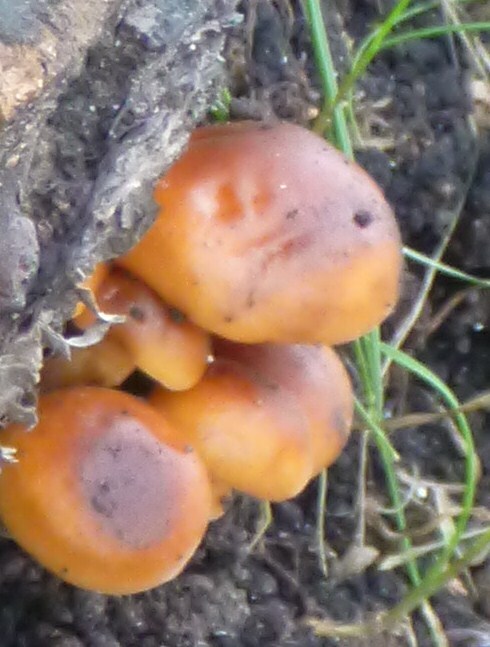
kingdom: Fungi
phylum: Basidiomycota
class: Agaricomycetes
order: Agaricales
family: Physalacriaceae
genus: Flammulina
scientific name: Flammulina
